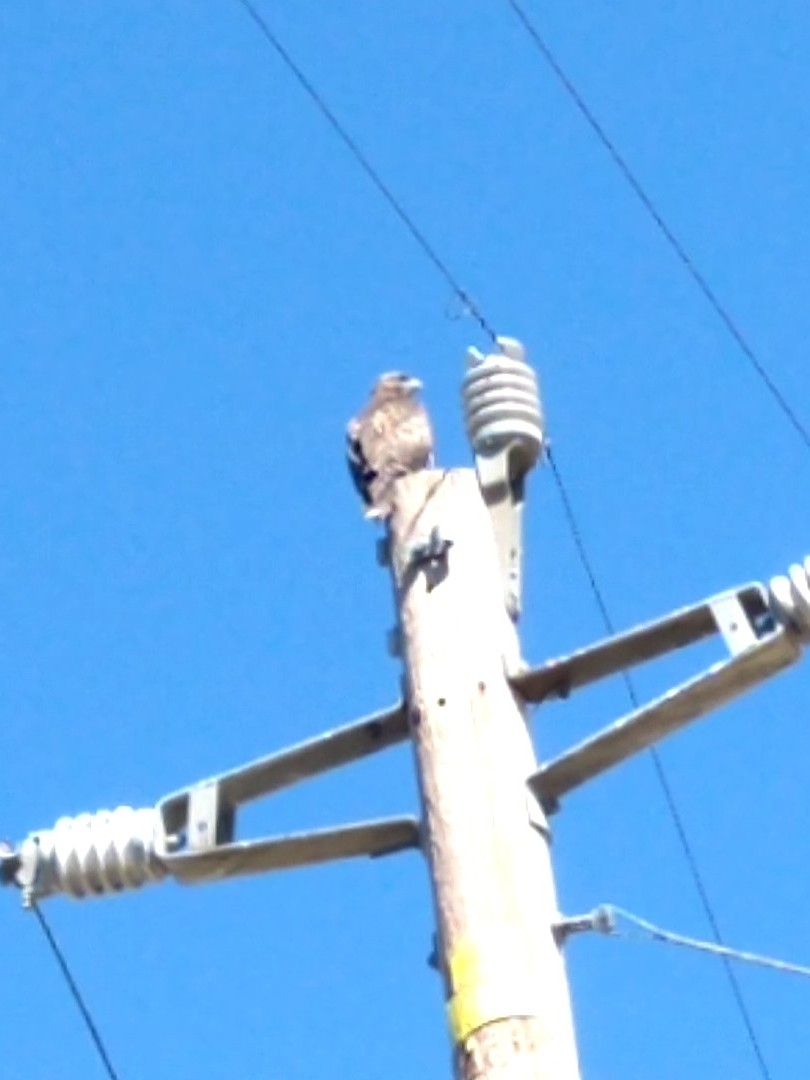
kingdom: Animalia
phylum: Chordata
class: Aves
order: Accipitriformes
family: Accipitridae
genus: Buteo
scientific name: Buteo jamaicensis
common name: Red-tailed hawk
